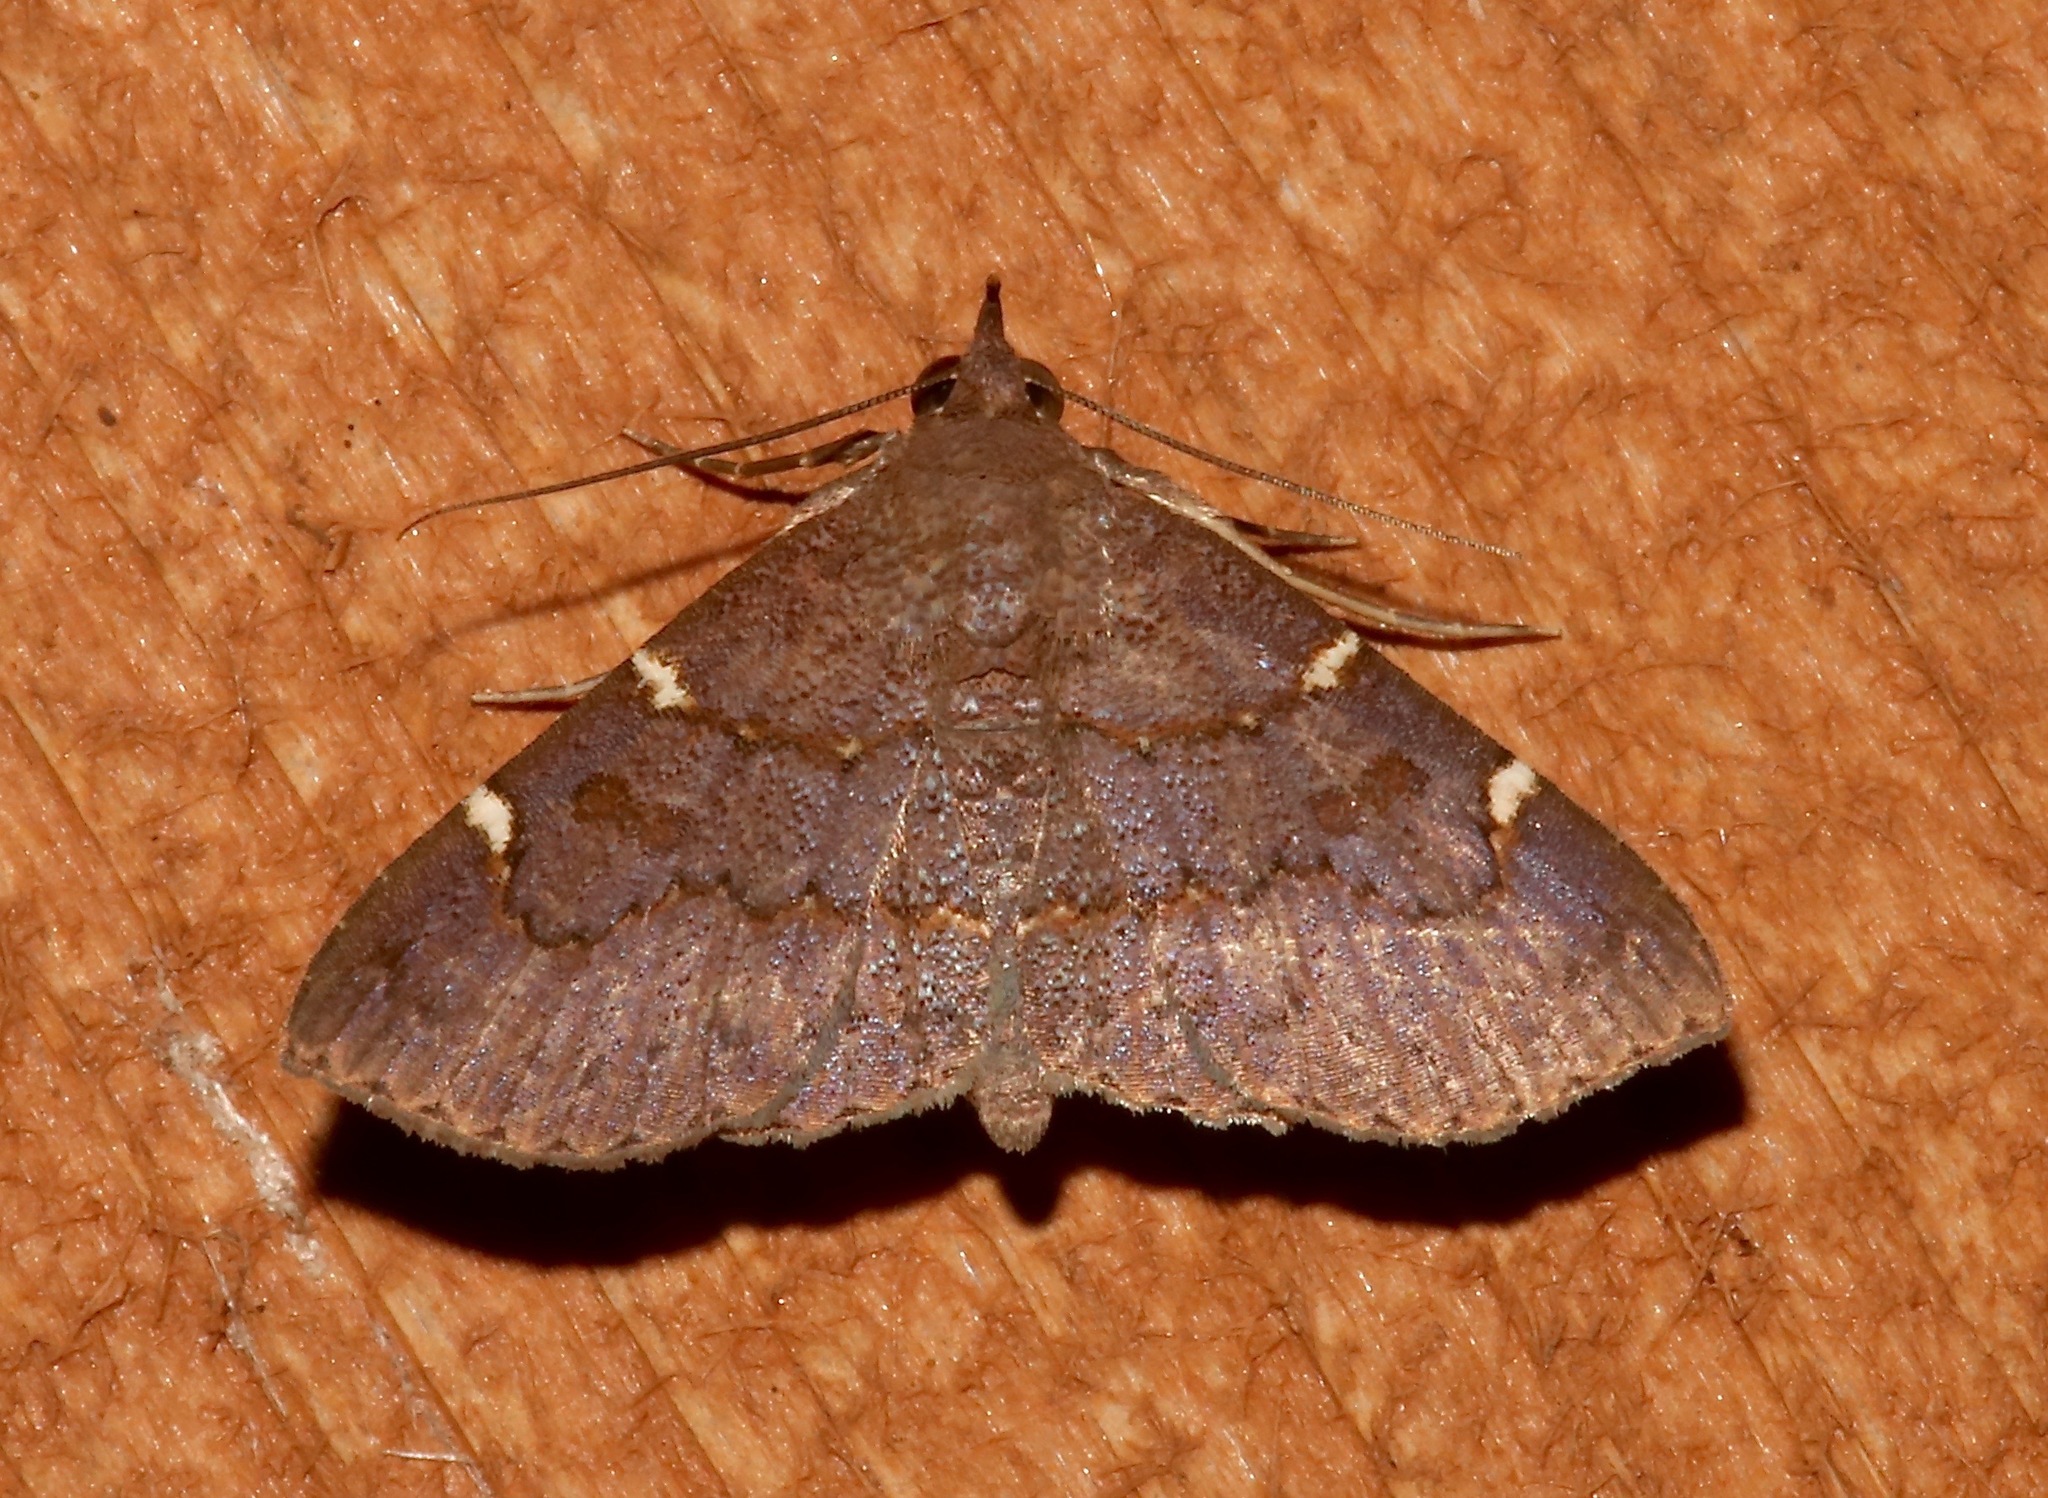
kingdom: Animalia
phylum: Arthropoda
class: Insecta
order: Lepidoptera
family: Erebidae
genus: Antiblemma
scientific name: Antiblemma perva
